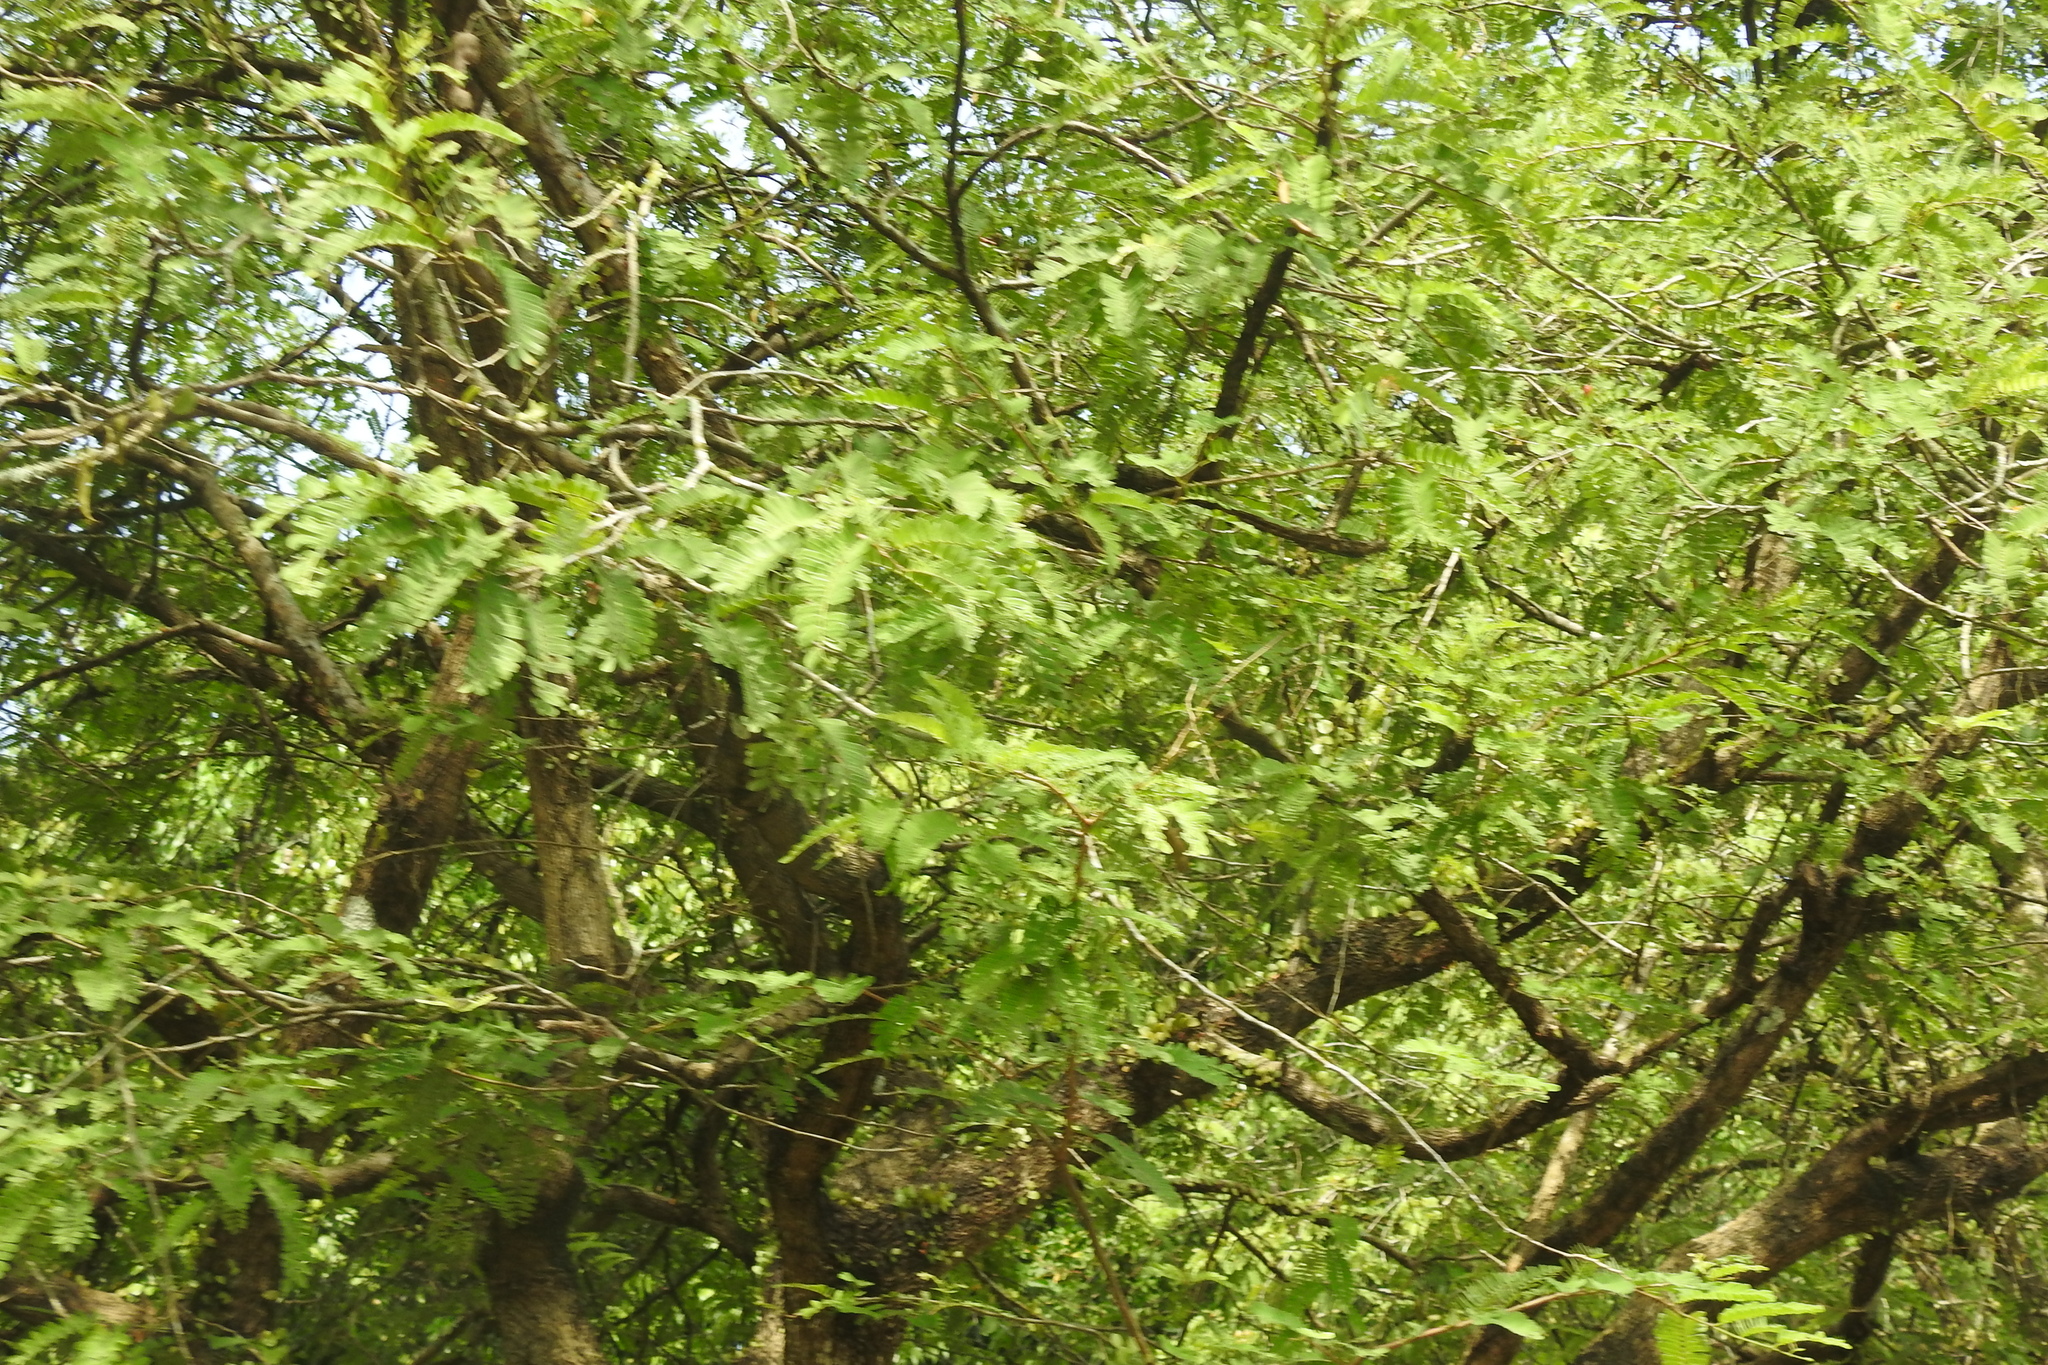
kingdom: Plantae
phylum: Tracheophyta
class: Magnoliopsida
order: Fabales
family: Fabaceae
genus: Tamarindus
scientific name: Tamarindus indica
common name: Tamarind
